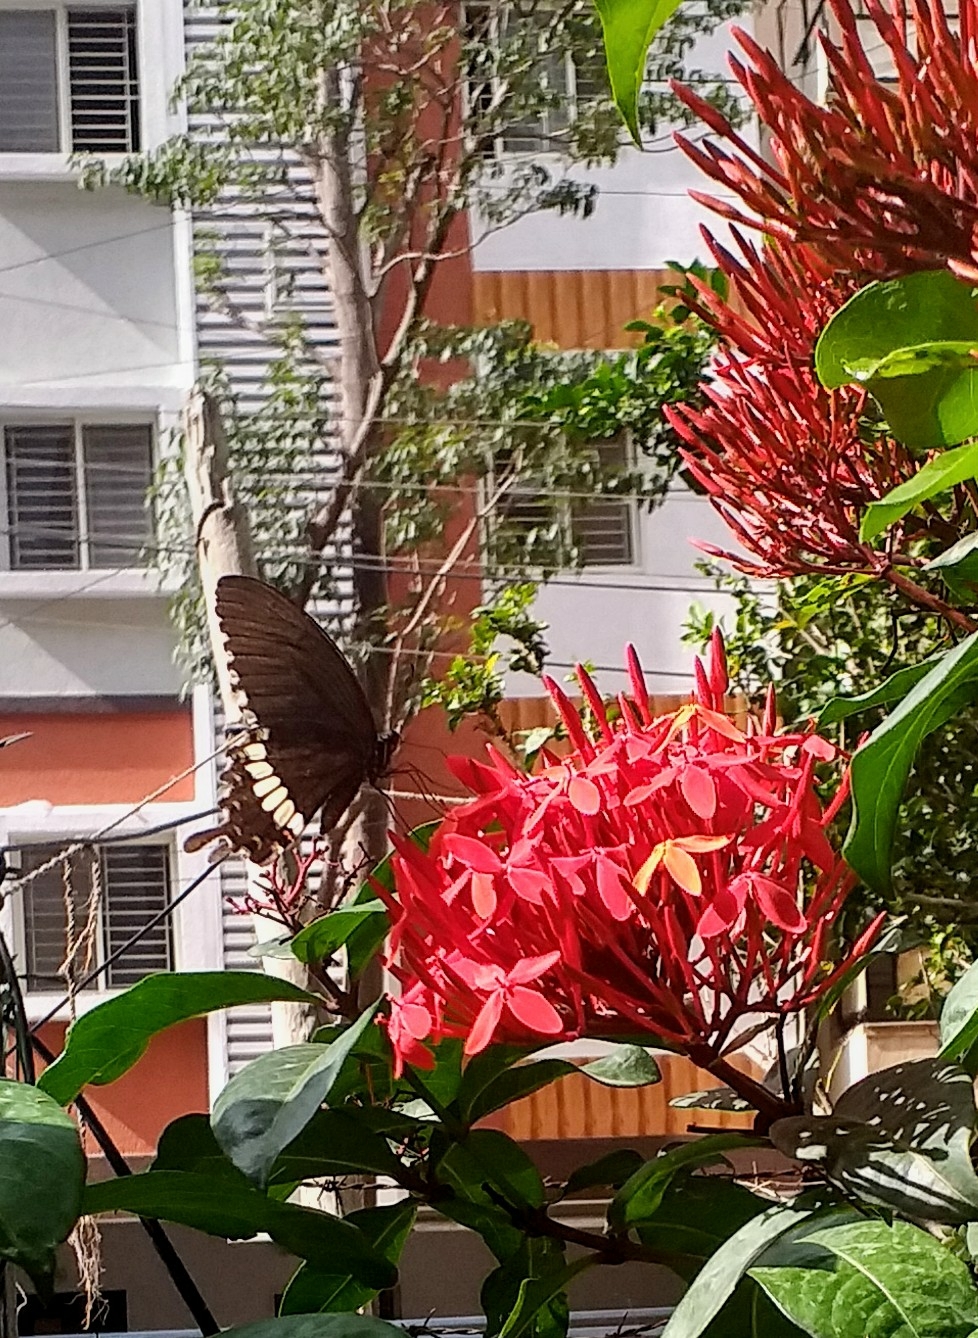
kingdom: Animalia
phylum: Arthropoda
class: Insecta
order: Lepidoptera
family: Papilionidae
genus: Papilio
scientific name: Papilio polytes
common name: Common mormon
